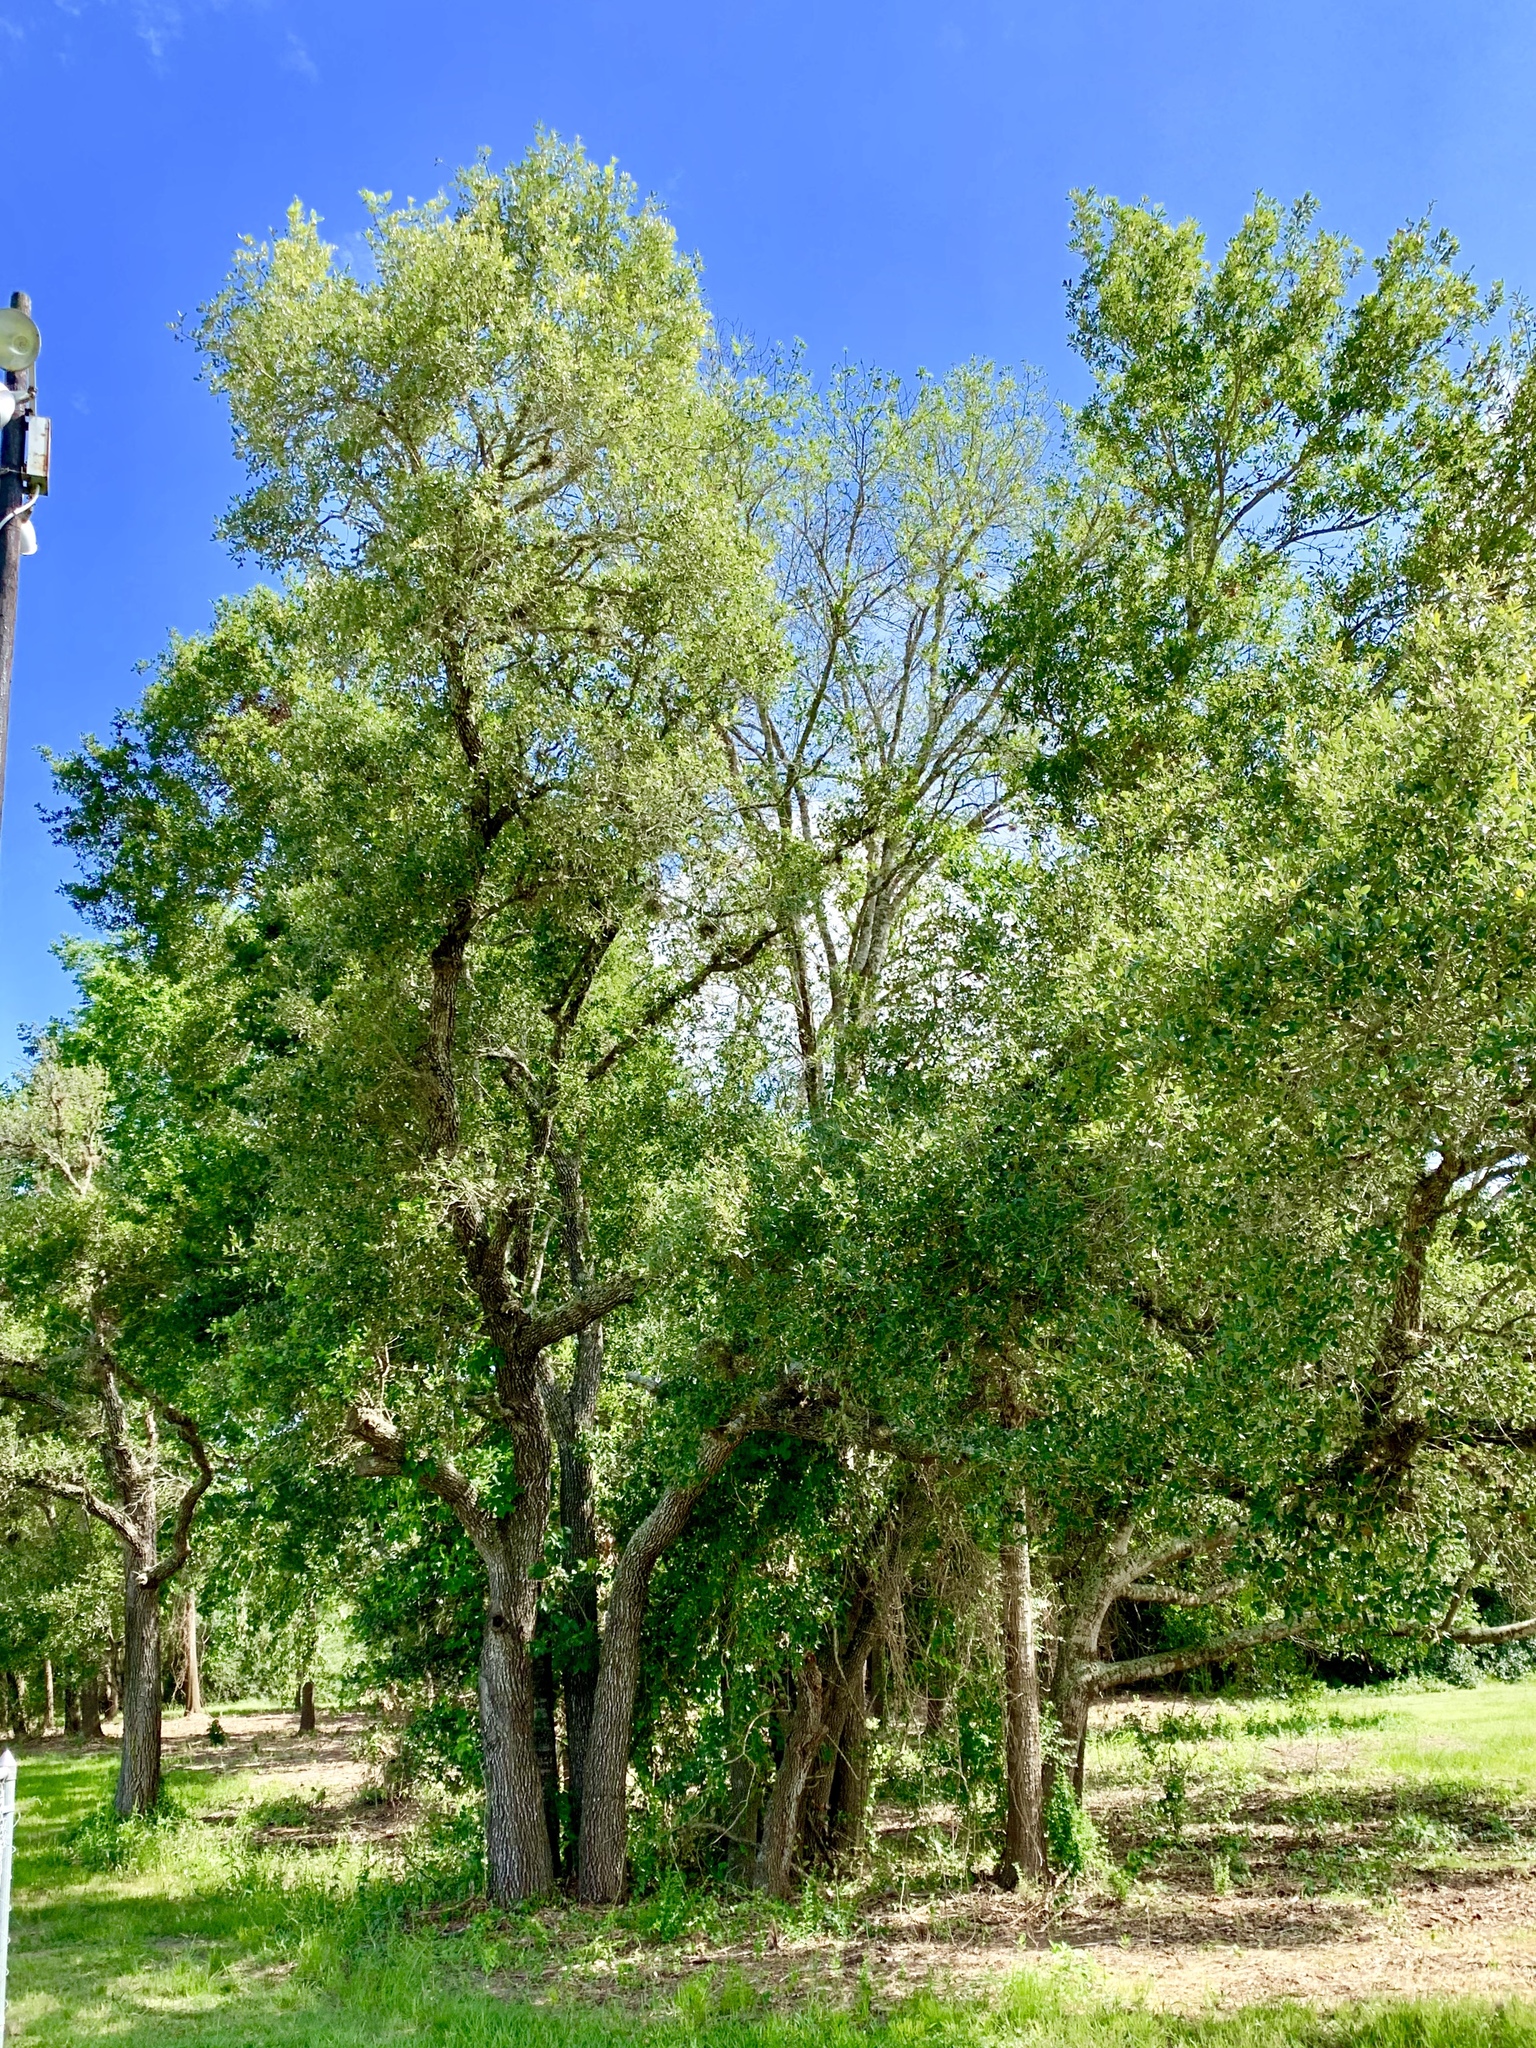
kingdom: Plantae
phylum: Tracheophyta
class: Magnoliopsida
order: Fagales
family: Fagaceae
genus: Quercus
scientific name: Quercus virginiana
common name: Southern live oak
